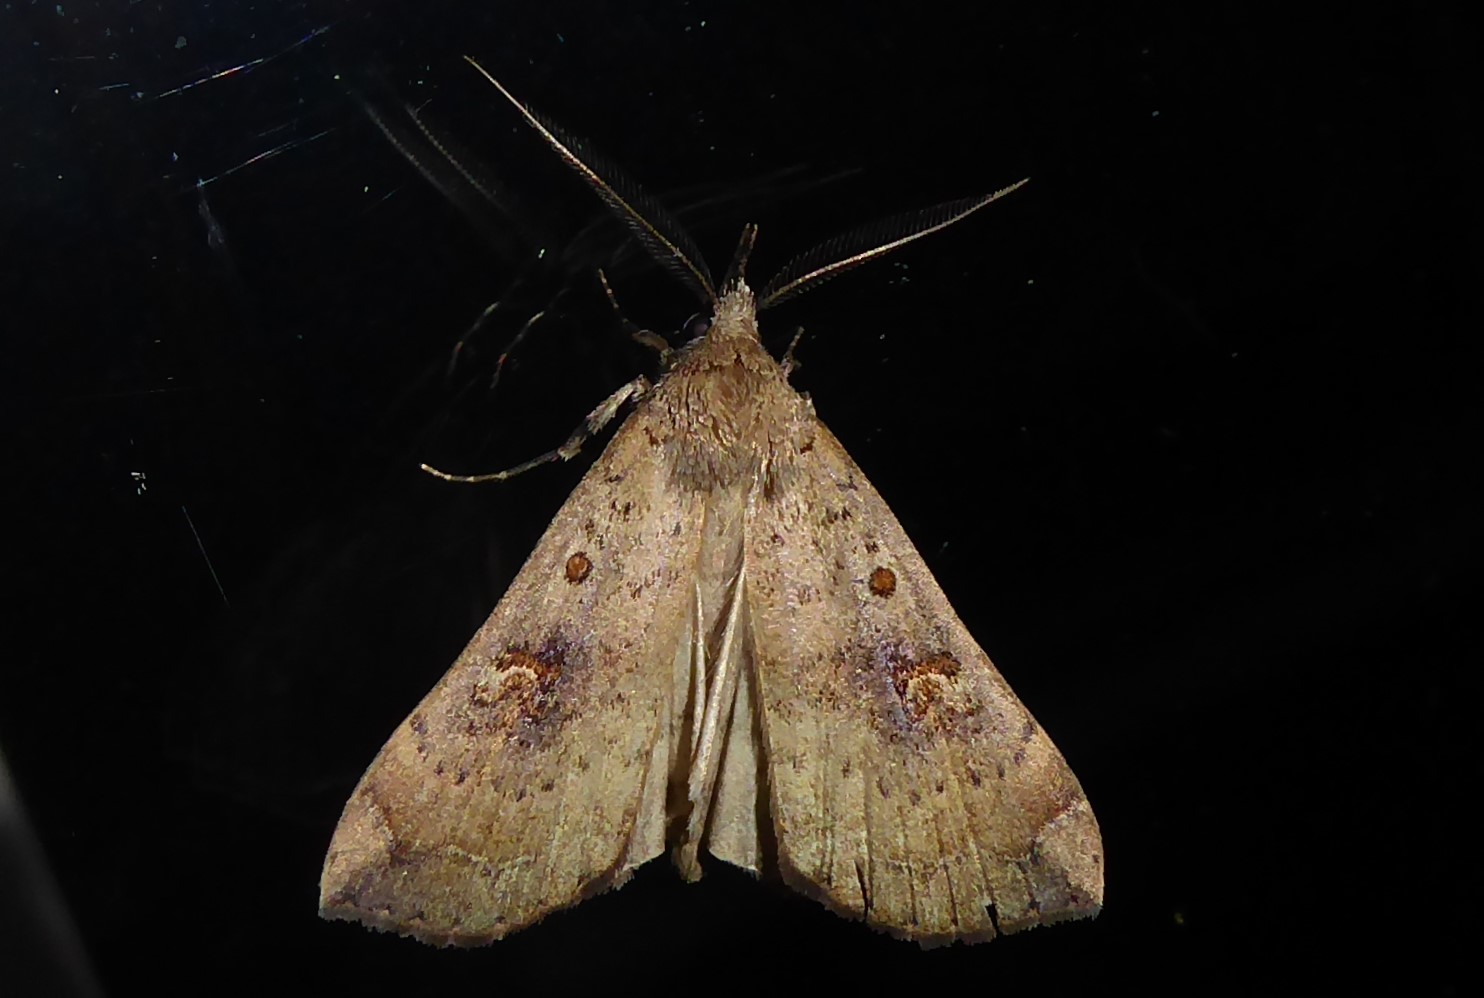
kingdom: Animalia
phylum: Arthropoda
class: Insecta
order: Lepidoptera
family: Erebidae
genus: Rhapsa
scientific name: Rhapsa scotosialis
